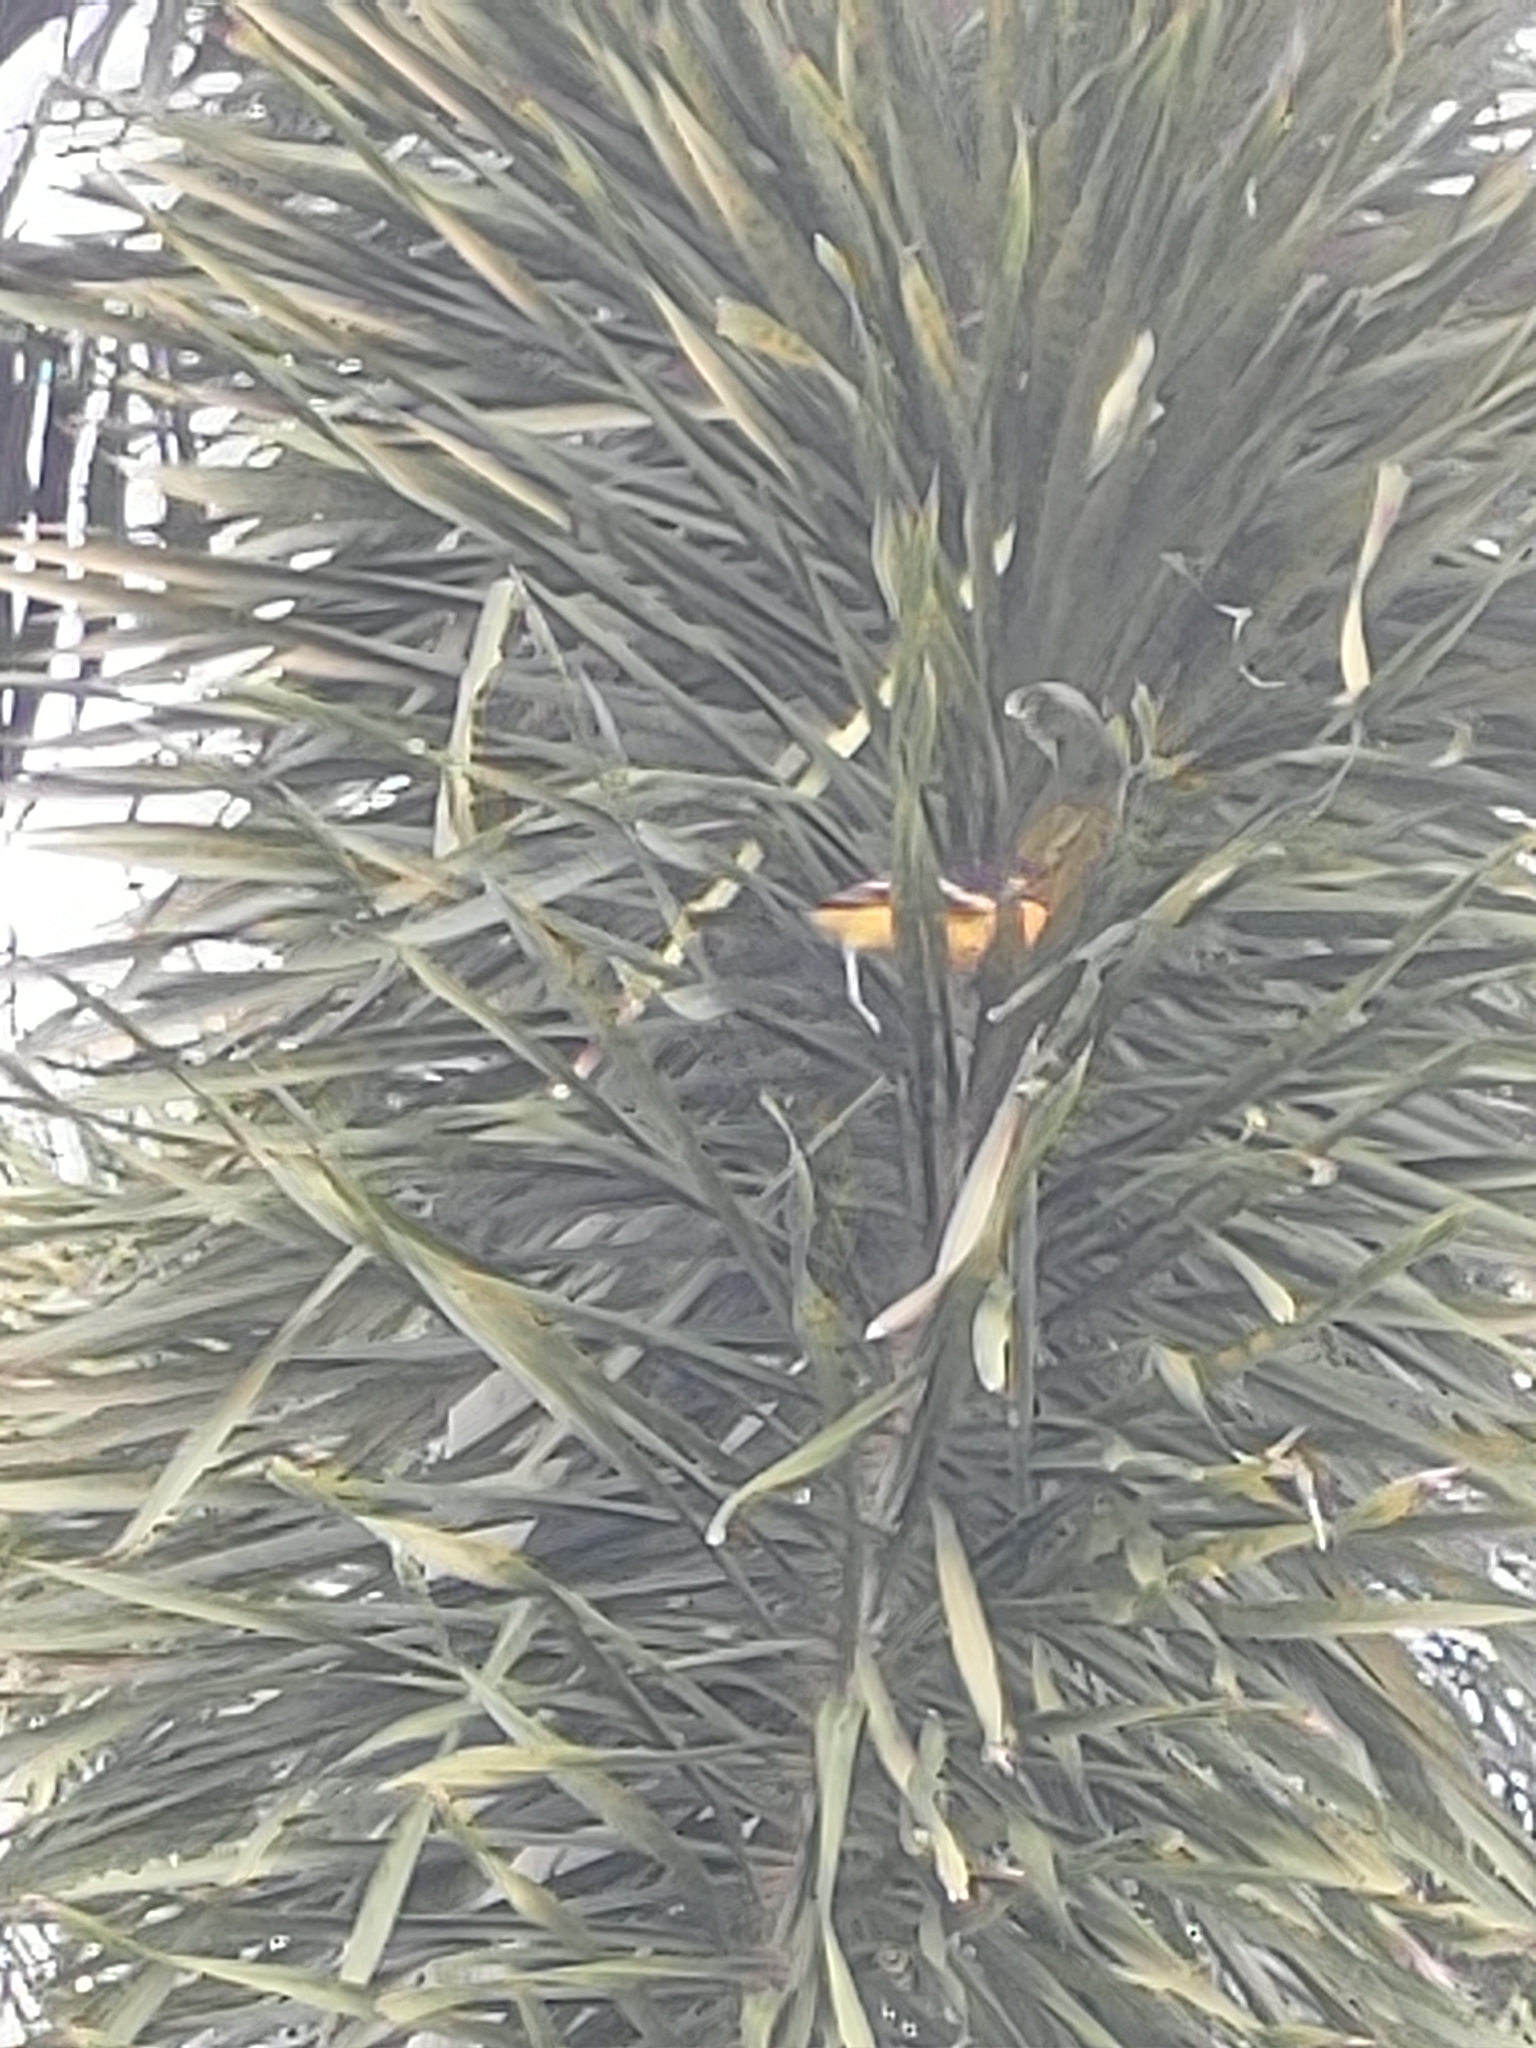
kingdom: Animalia
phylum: Chordata
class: Aves
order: Passeriformes
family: Icteridae
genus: Icterus
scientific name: Icterus pectoralis
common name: Spot-breasted oriole
